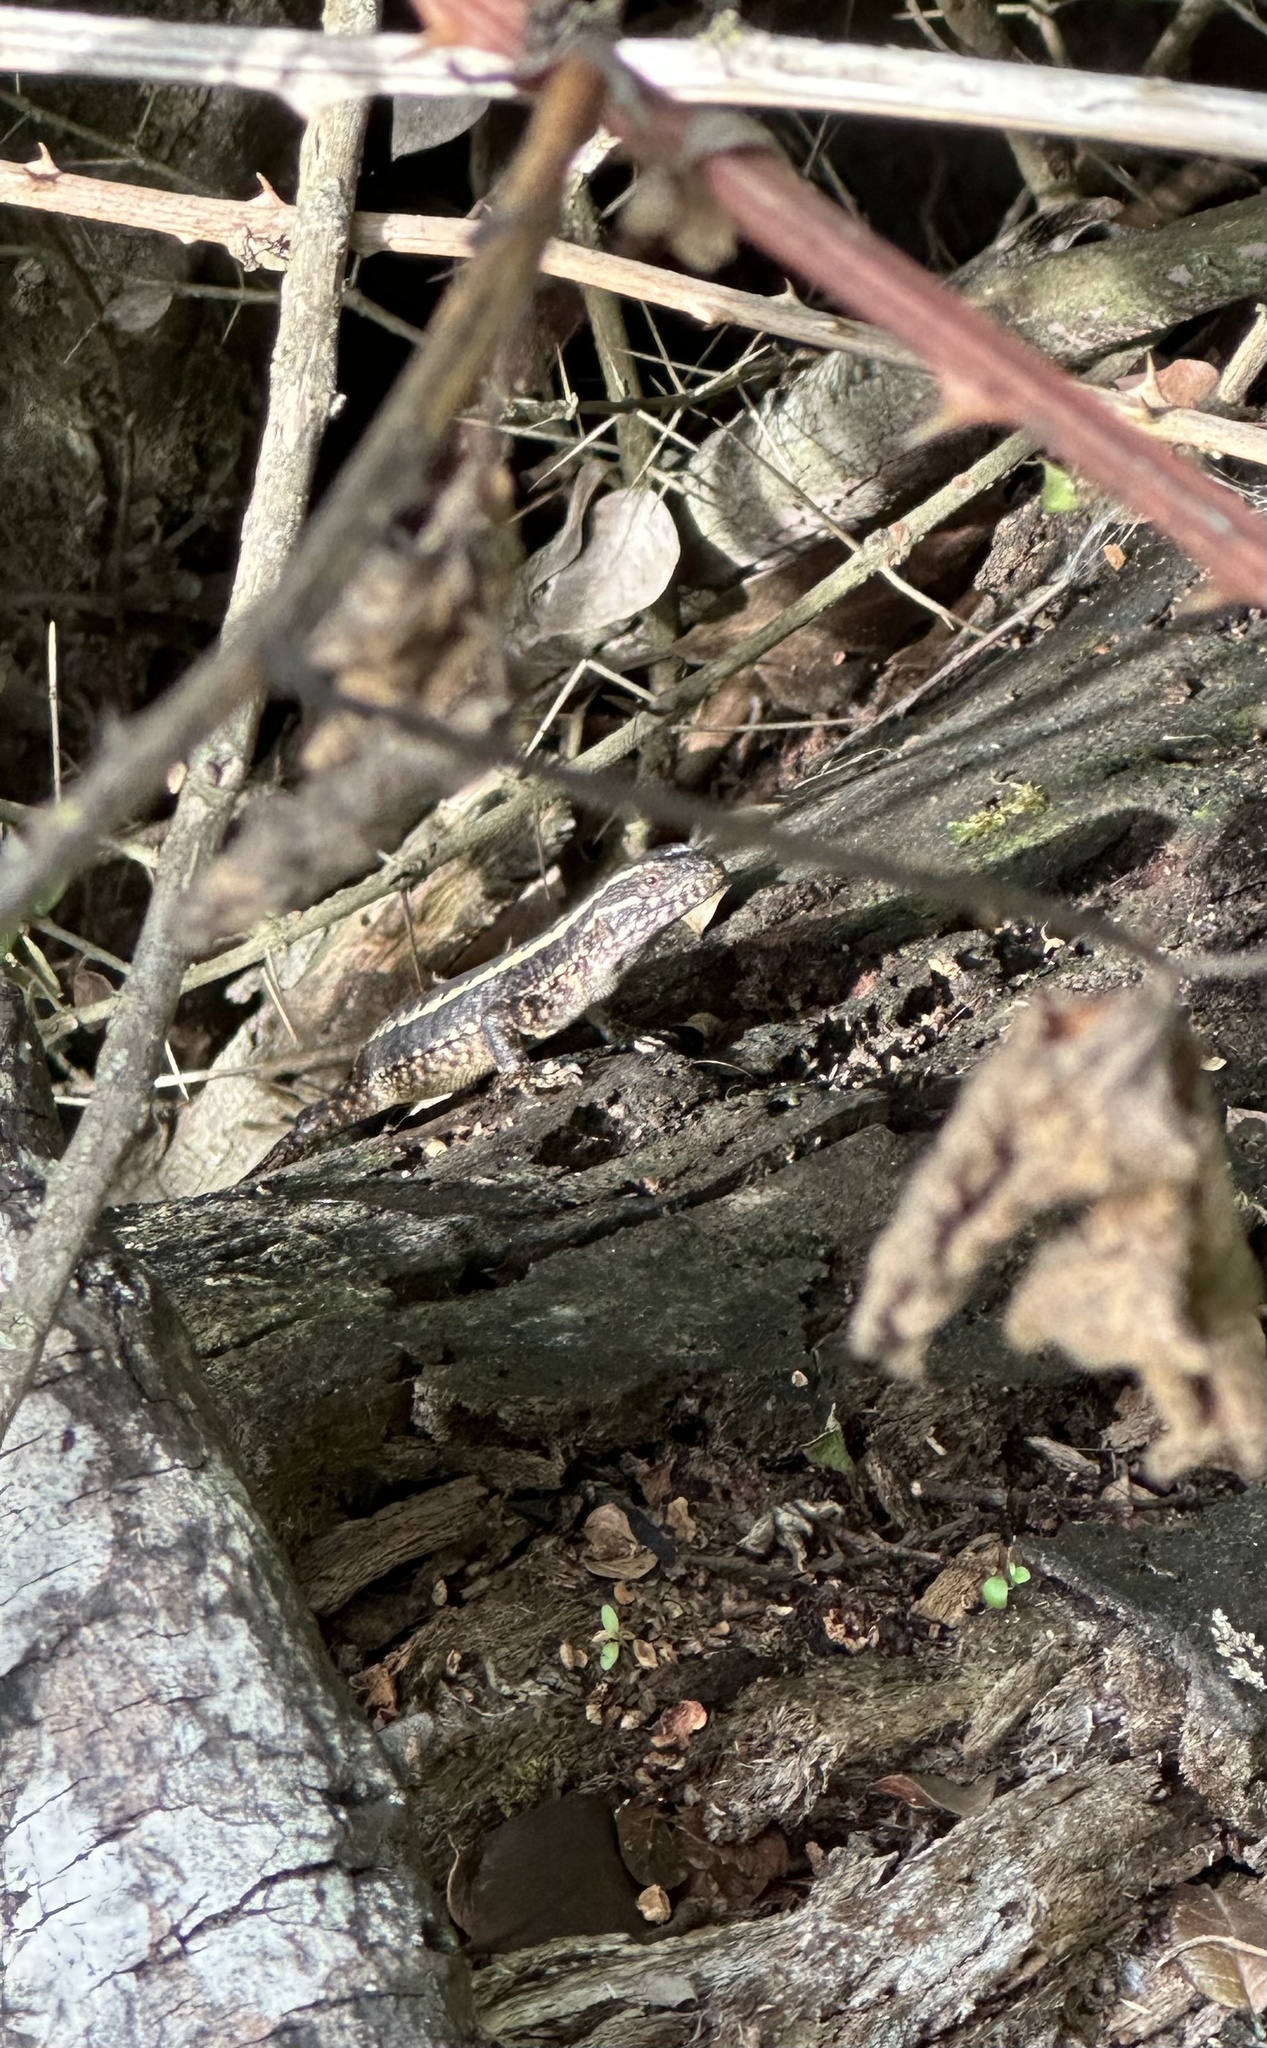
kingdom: Animalia
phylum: Chordata
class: Squamata
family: Liolaemidae
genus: Liolaemus
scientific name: Liolaemus pictus
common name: Painted tree iguana
